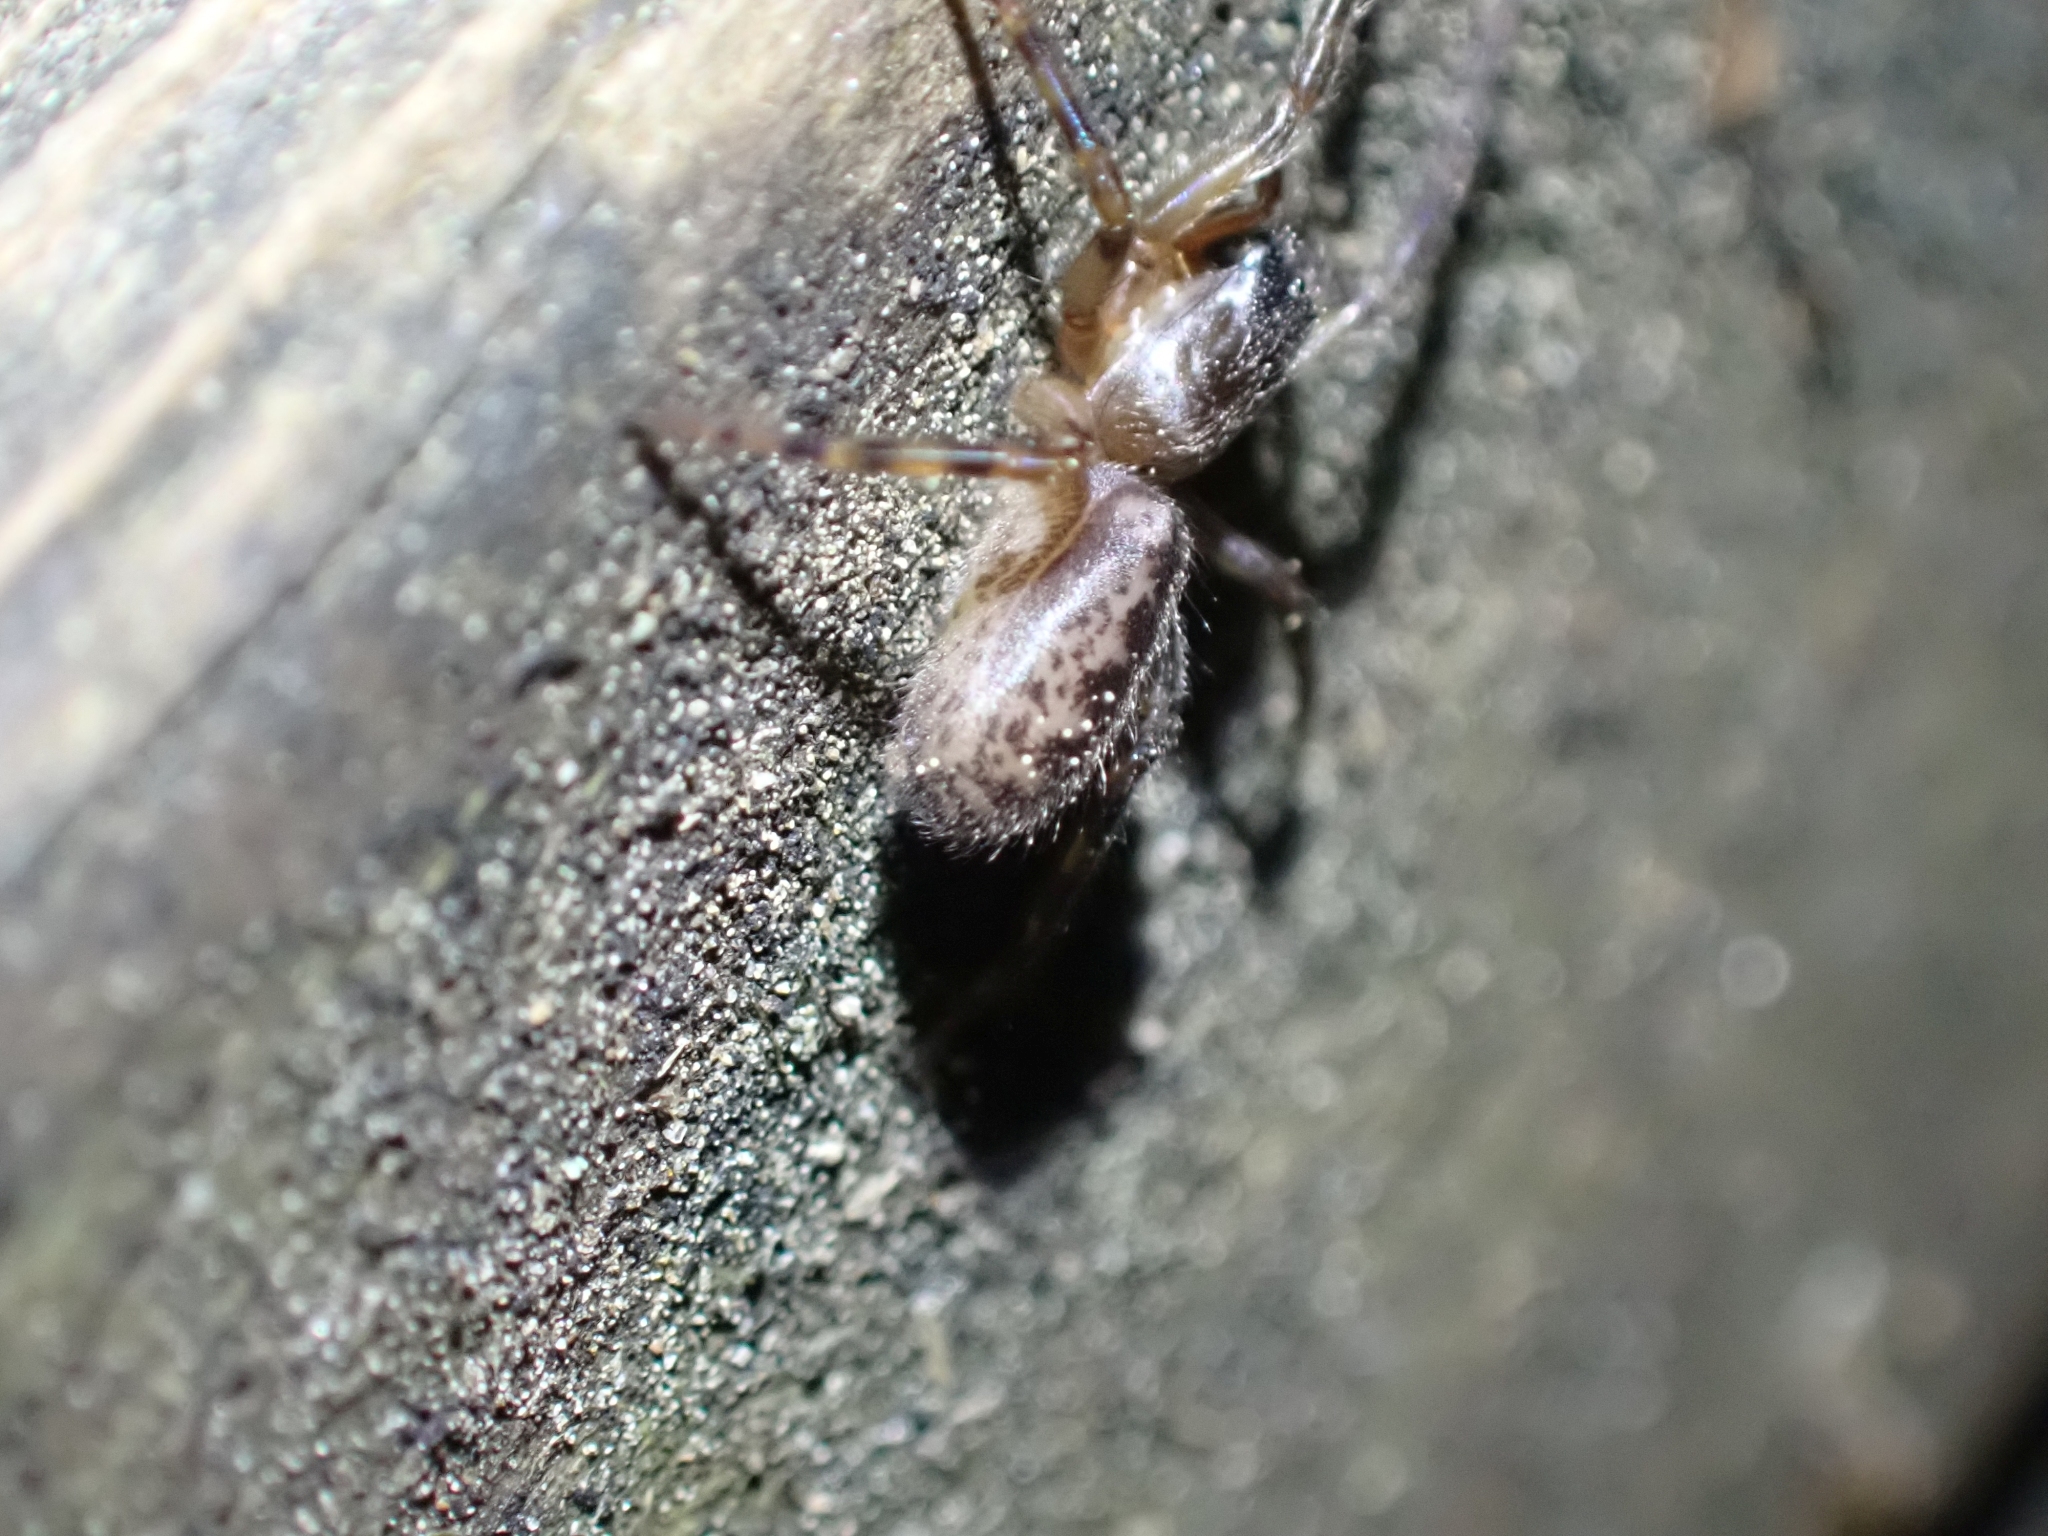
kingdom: Animalia
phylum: Arthropoda
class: Arachnida
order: Araneae
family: Segestriidae
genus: Segestria
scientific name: Segestria pacifica
